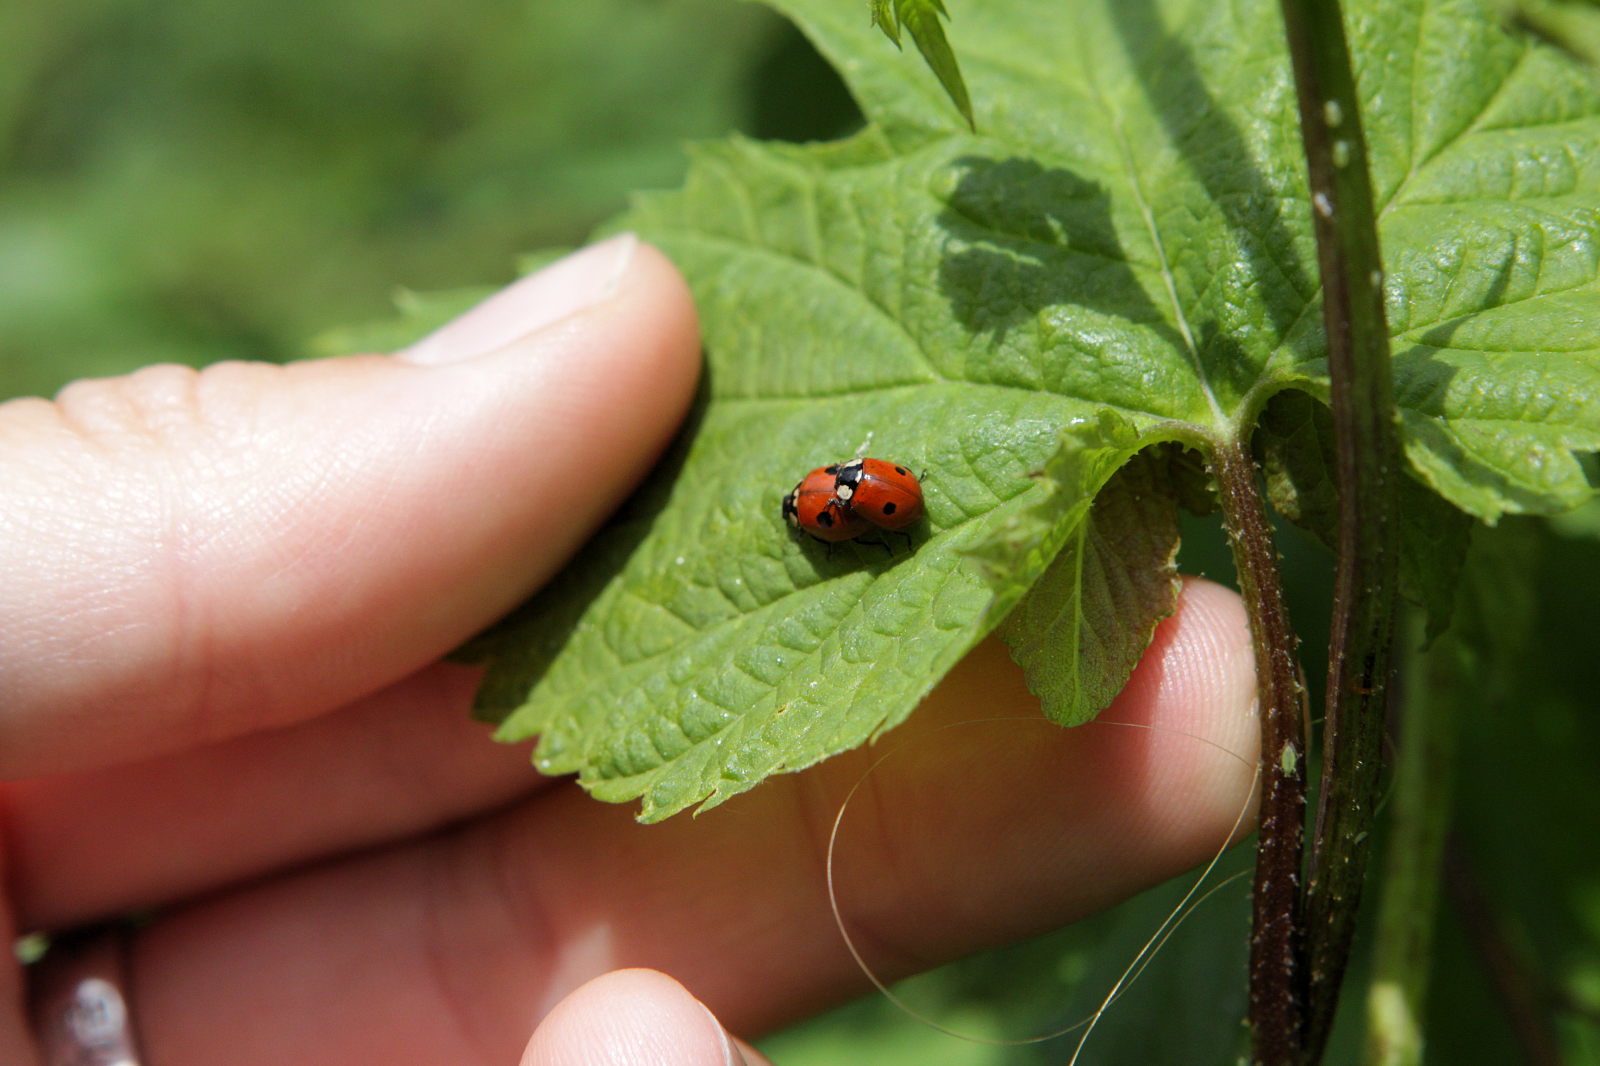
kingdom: Animalia
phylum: Arthropoda
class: Insecta
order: Coleoptera
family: Coccinellidae
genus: Adalia
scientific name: Adalia bipunctata
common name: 2-spot ladybird
